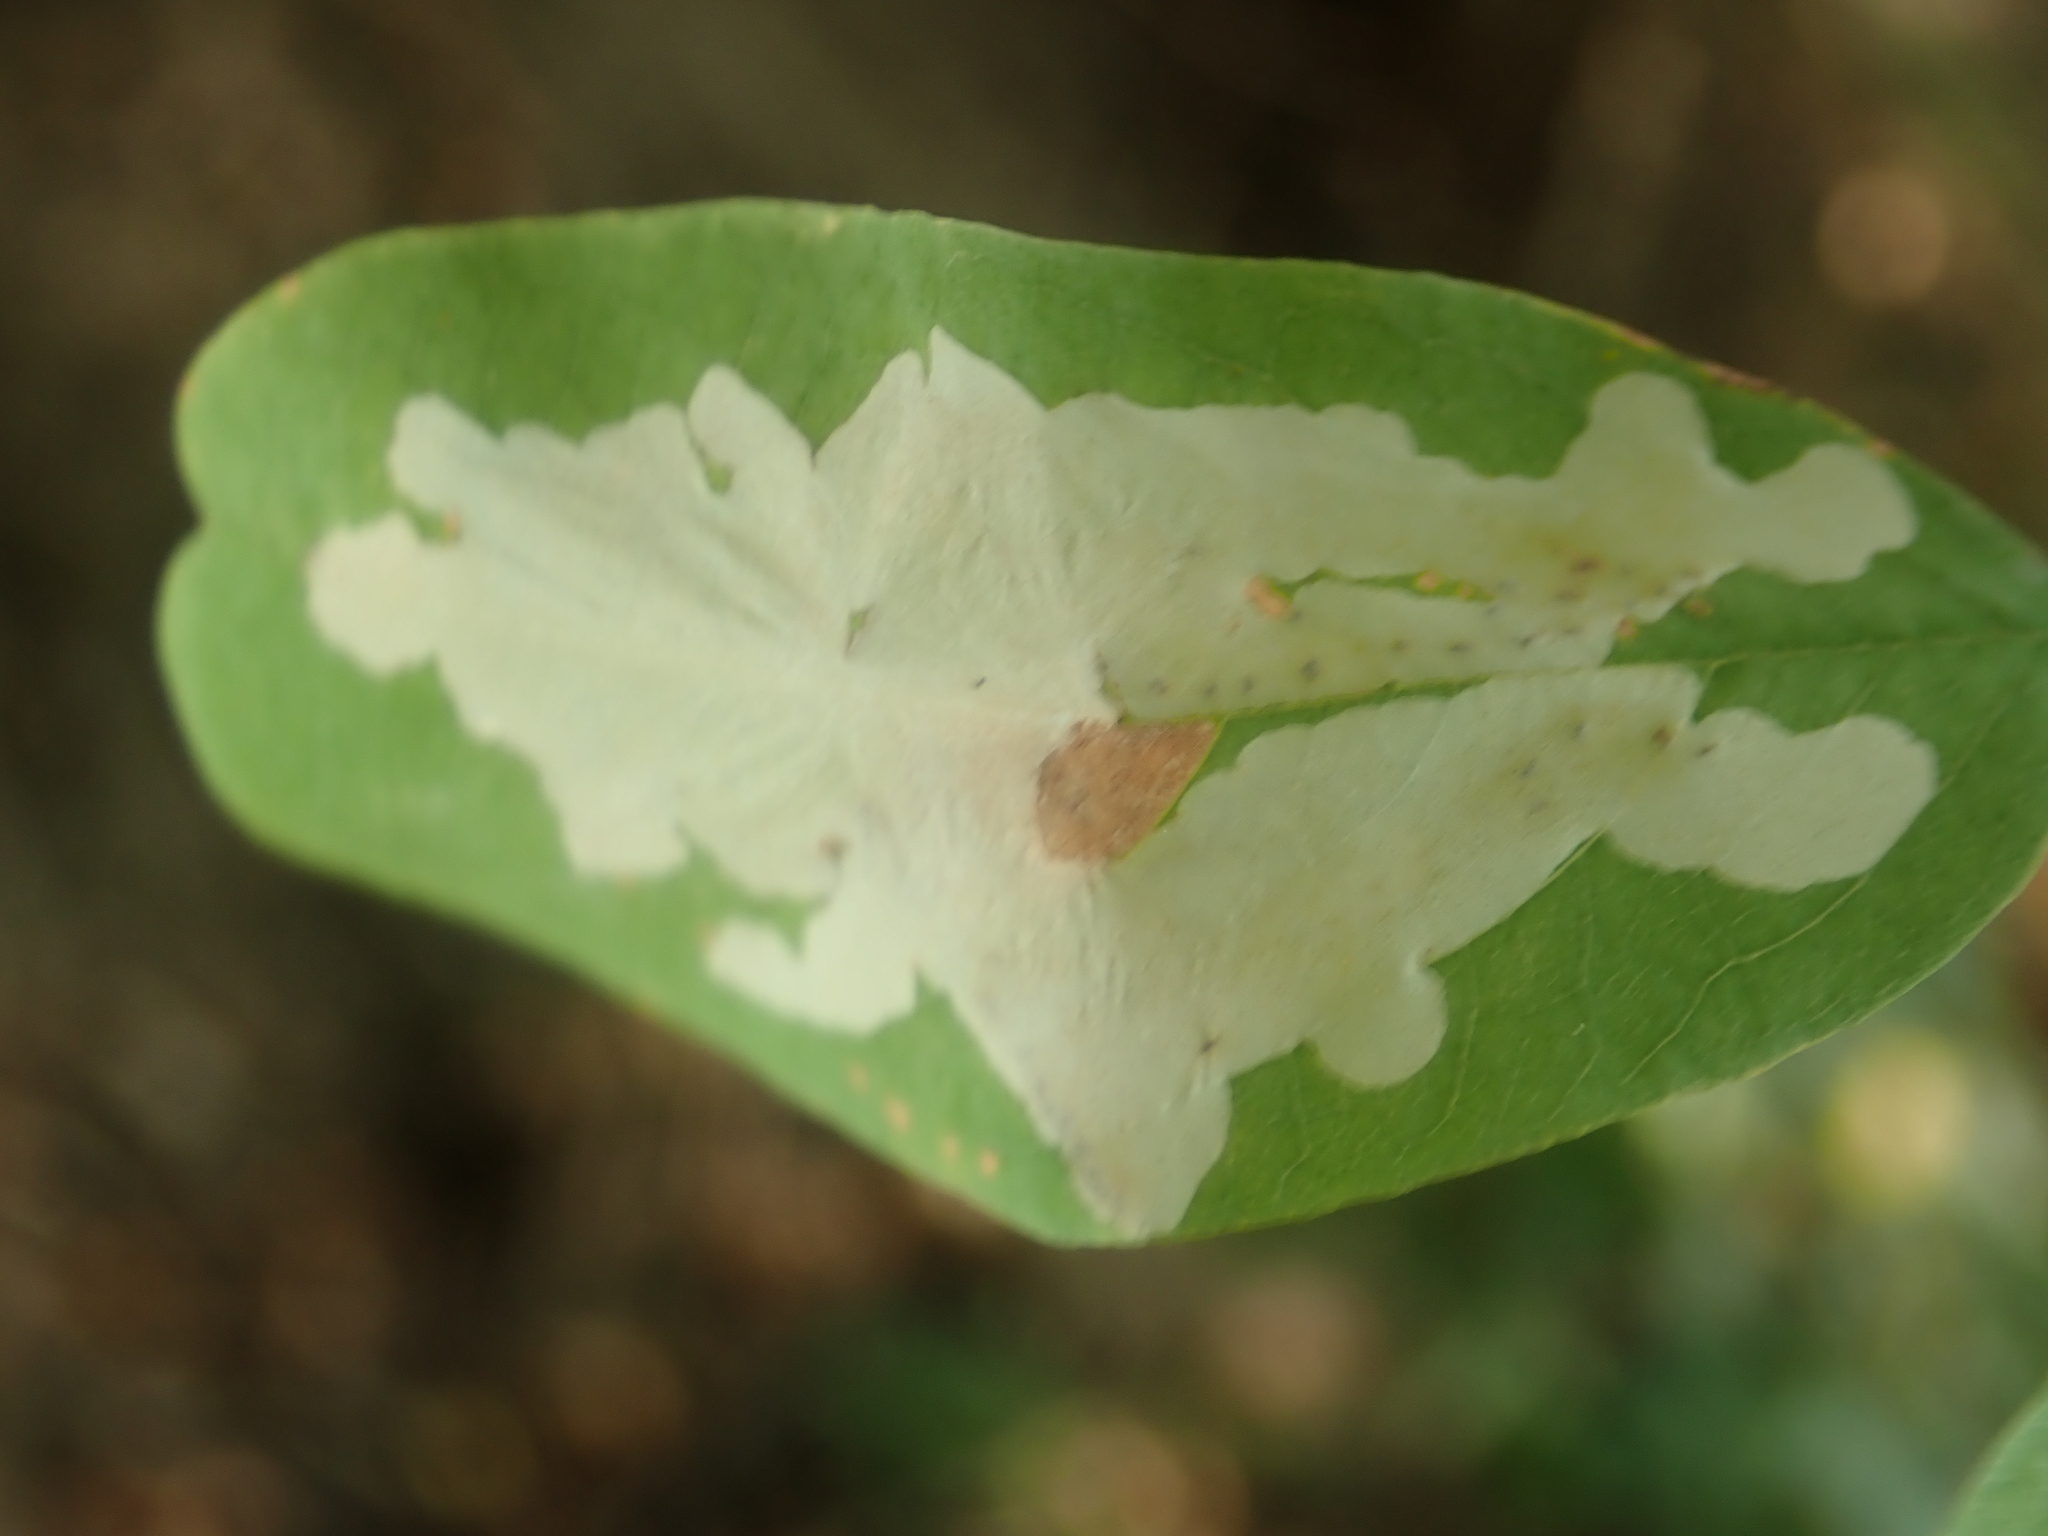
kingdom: Animalia
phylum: Arthropoda
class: Insecta
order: Lepidoptera
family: Gracillariidae
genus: Parectopa
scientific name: Parectopa robiniella
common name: Locust digitate leafminer
